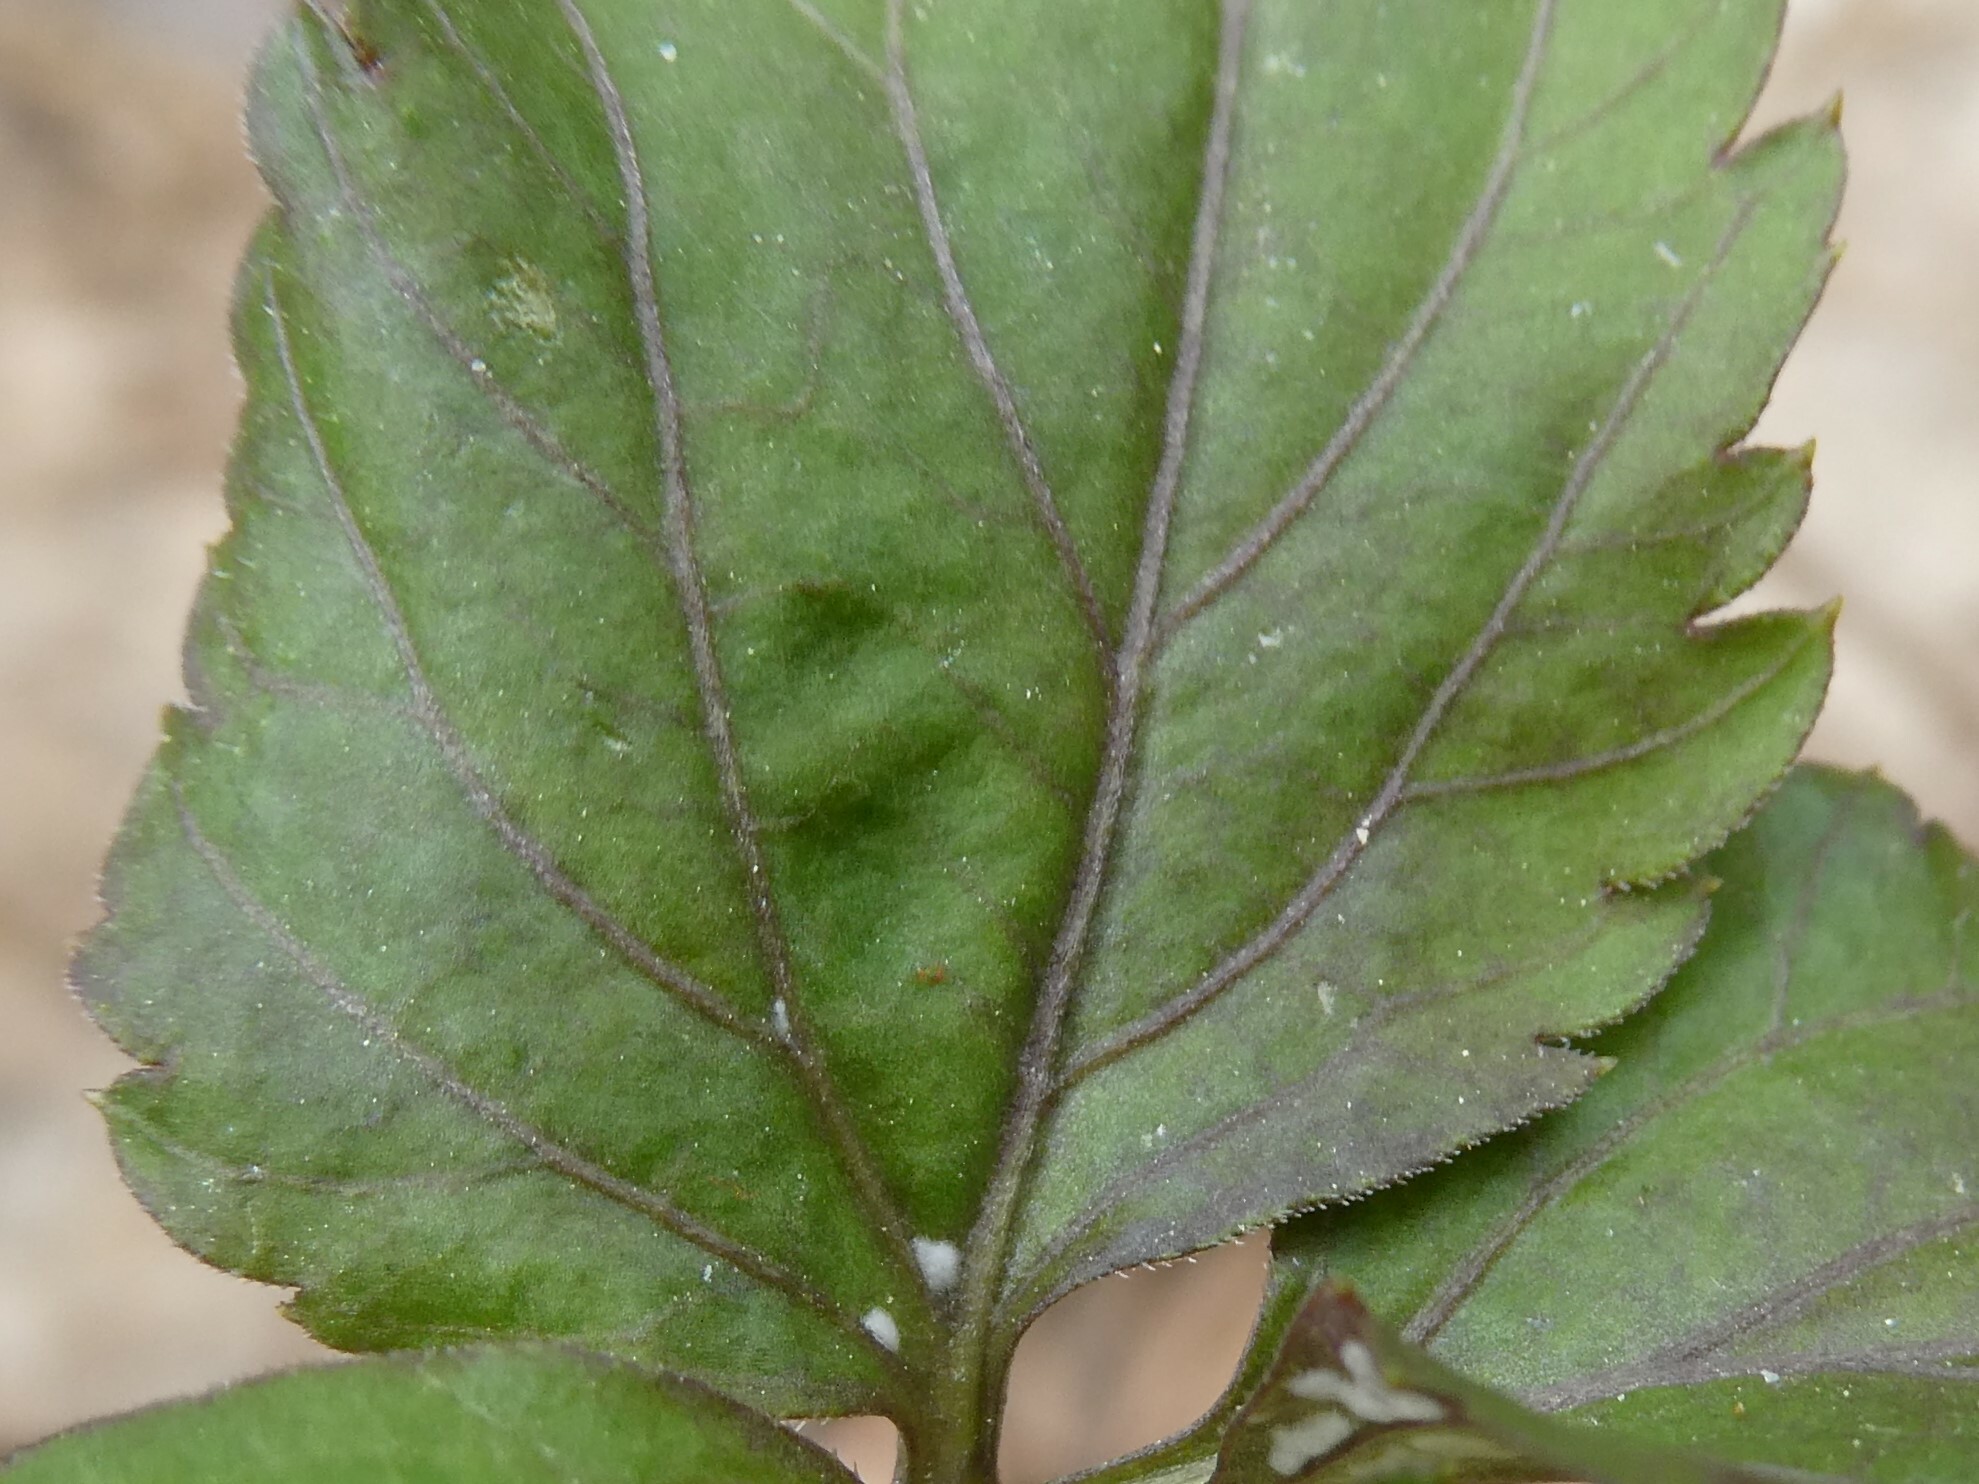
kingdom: Plantae
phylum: Tracheophyta
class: Magnoliopsida
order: Brassicales
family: Brassicaceae
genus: Cardamine
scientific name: Cardamine diphylla
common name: Broad-leaved toothwort
